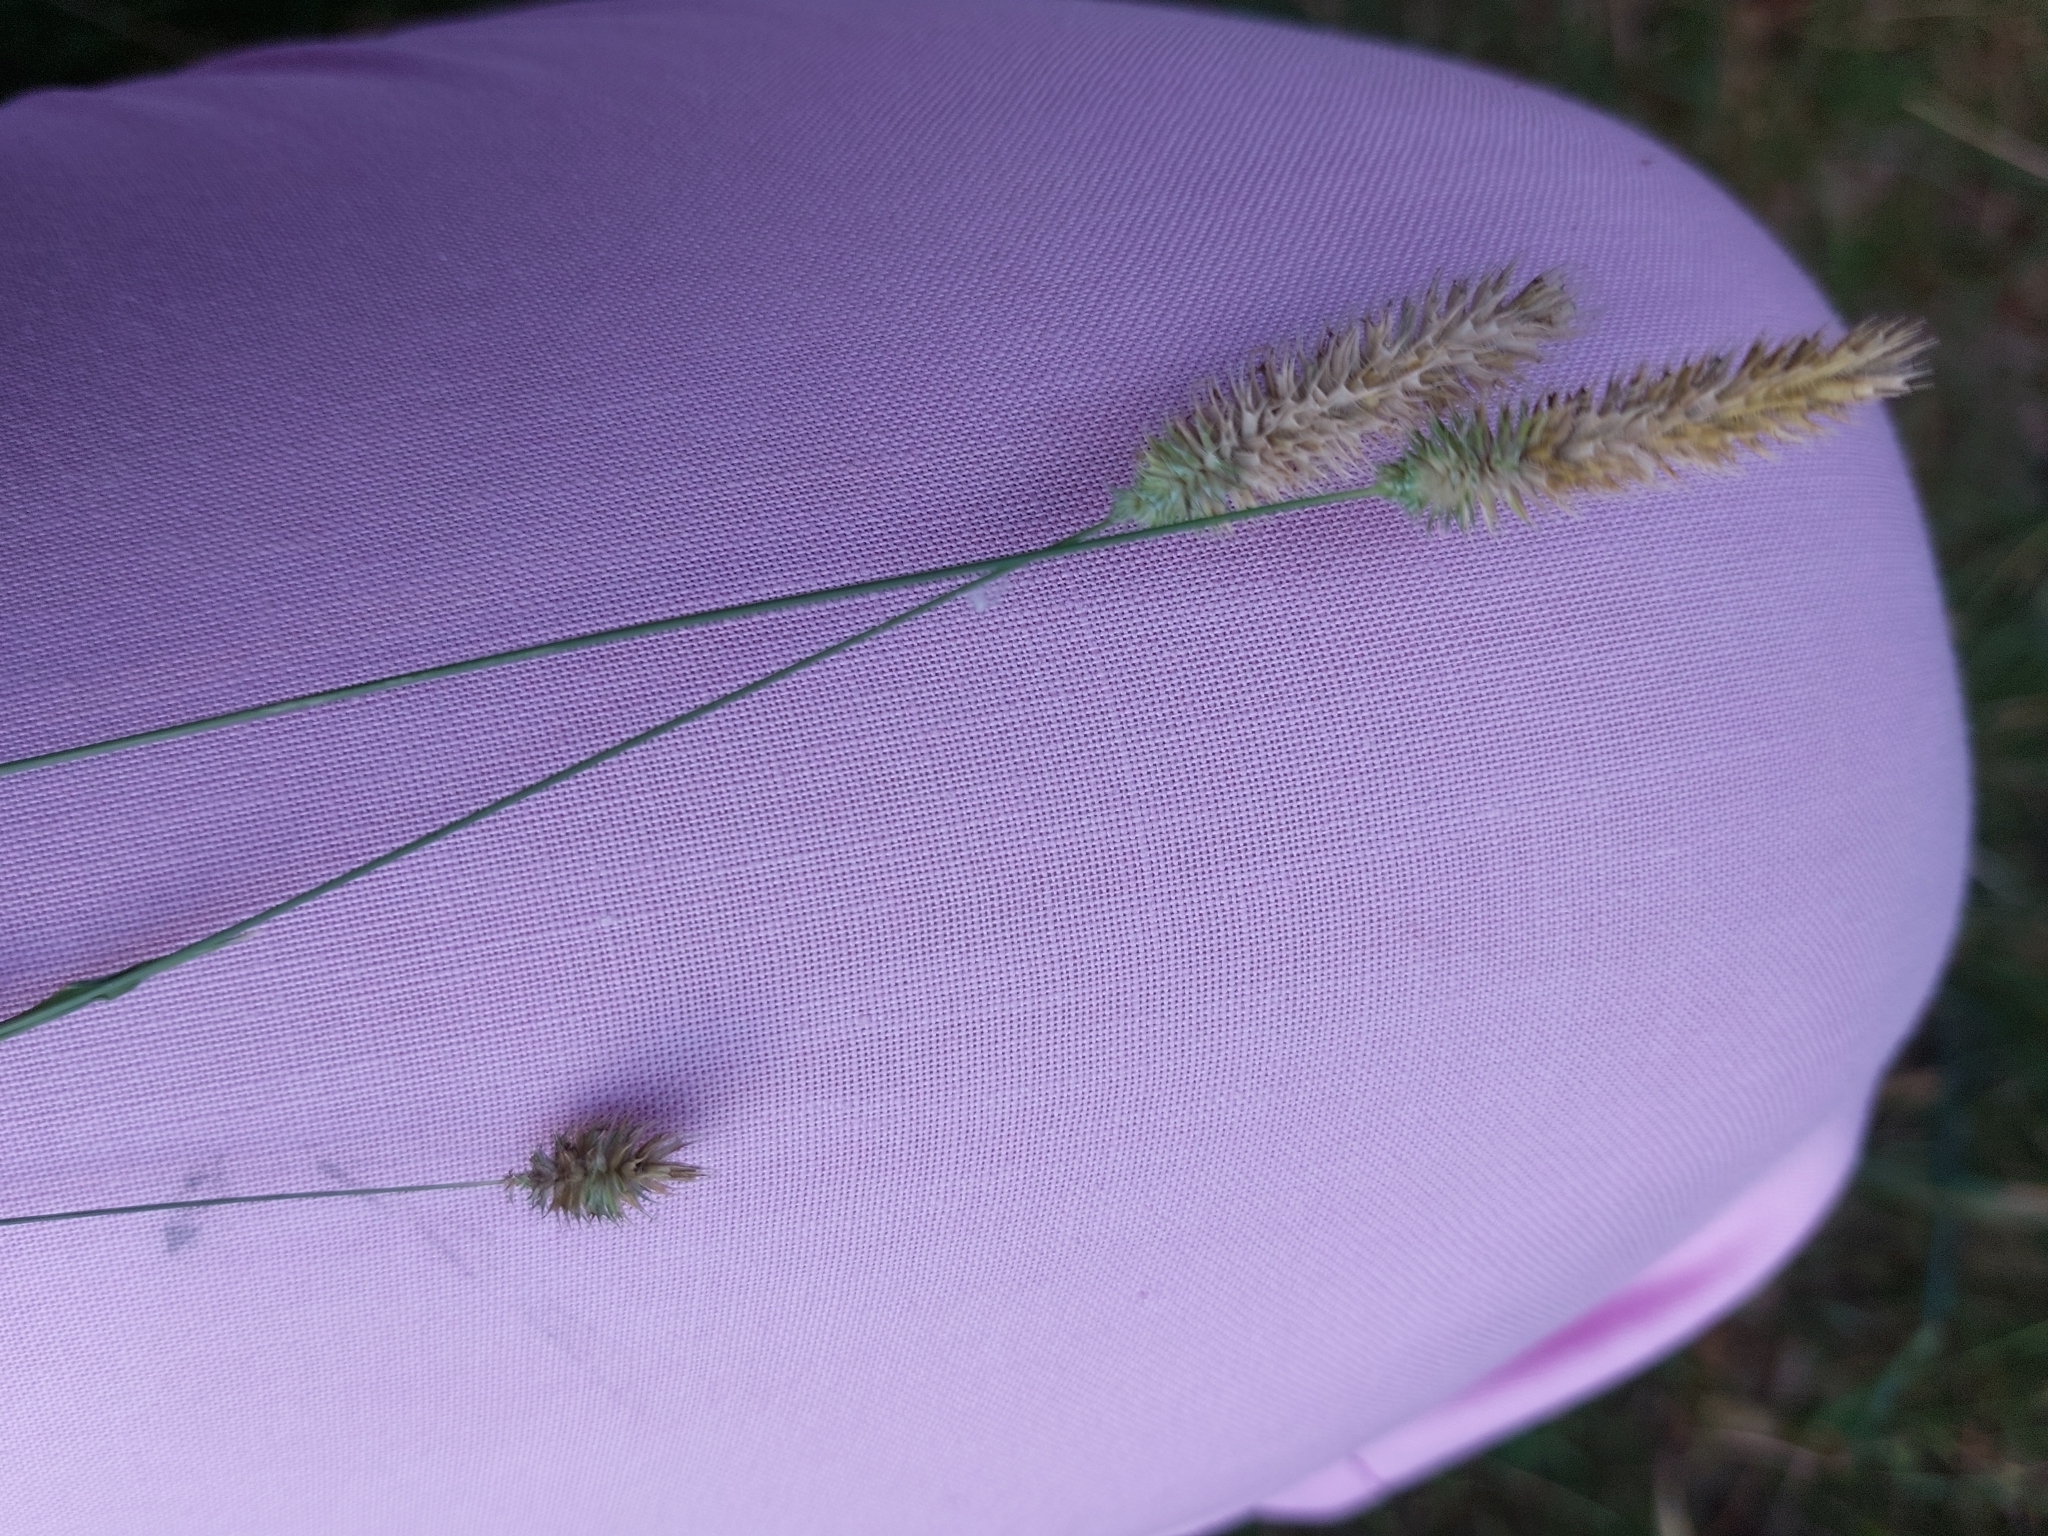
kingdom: Plantae
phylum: Tracheophyta
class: Liliopsida
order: Poales
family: Poaceae
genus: Phleum
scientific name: Phleum pratense
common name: Timothy grass
